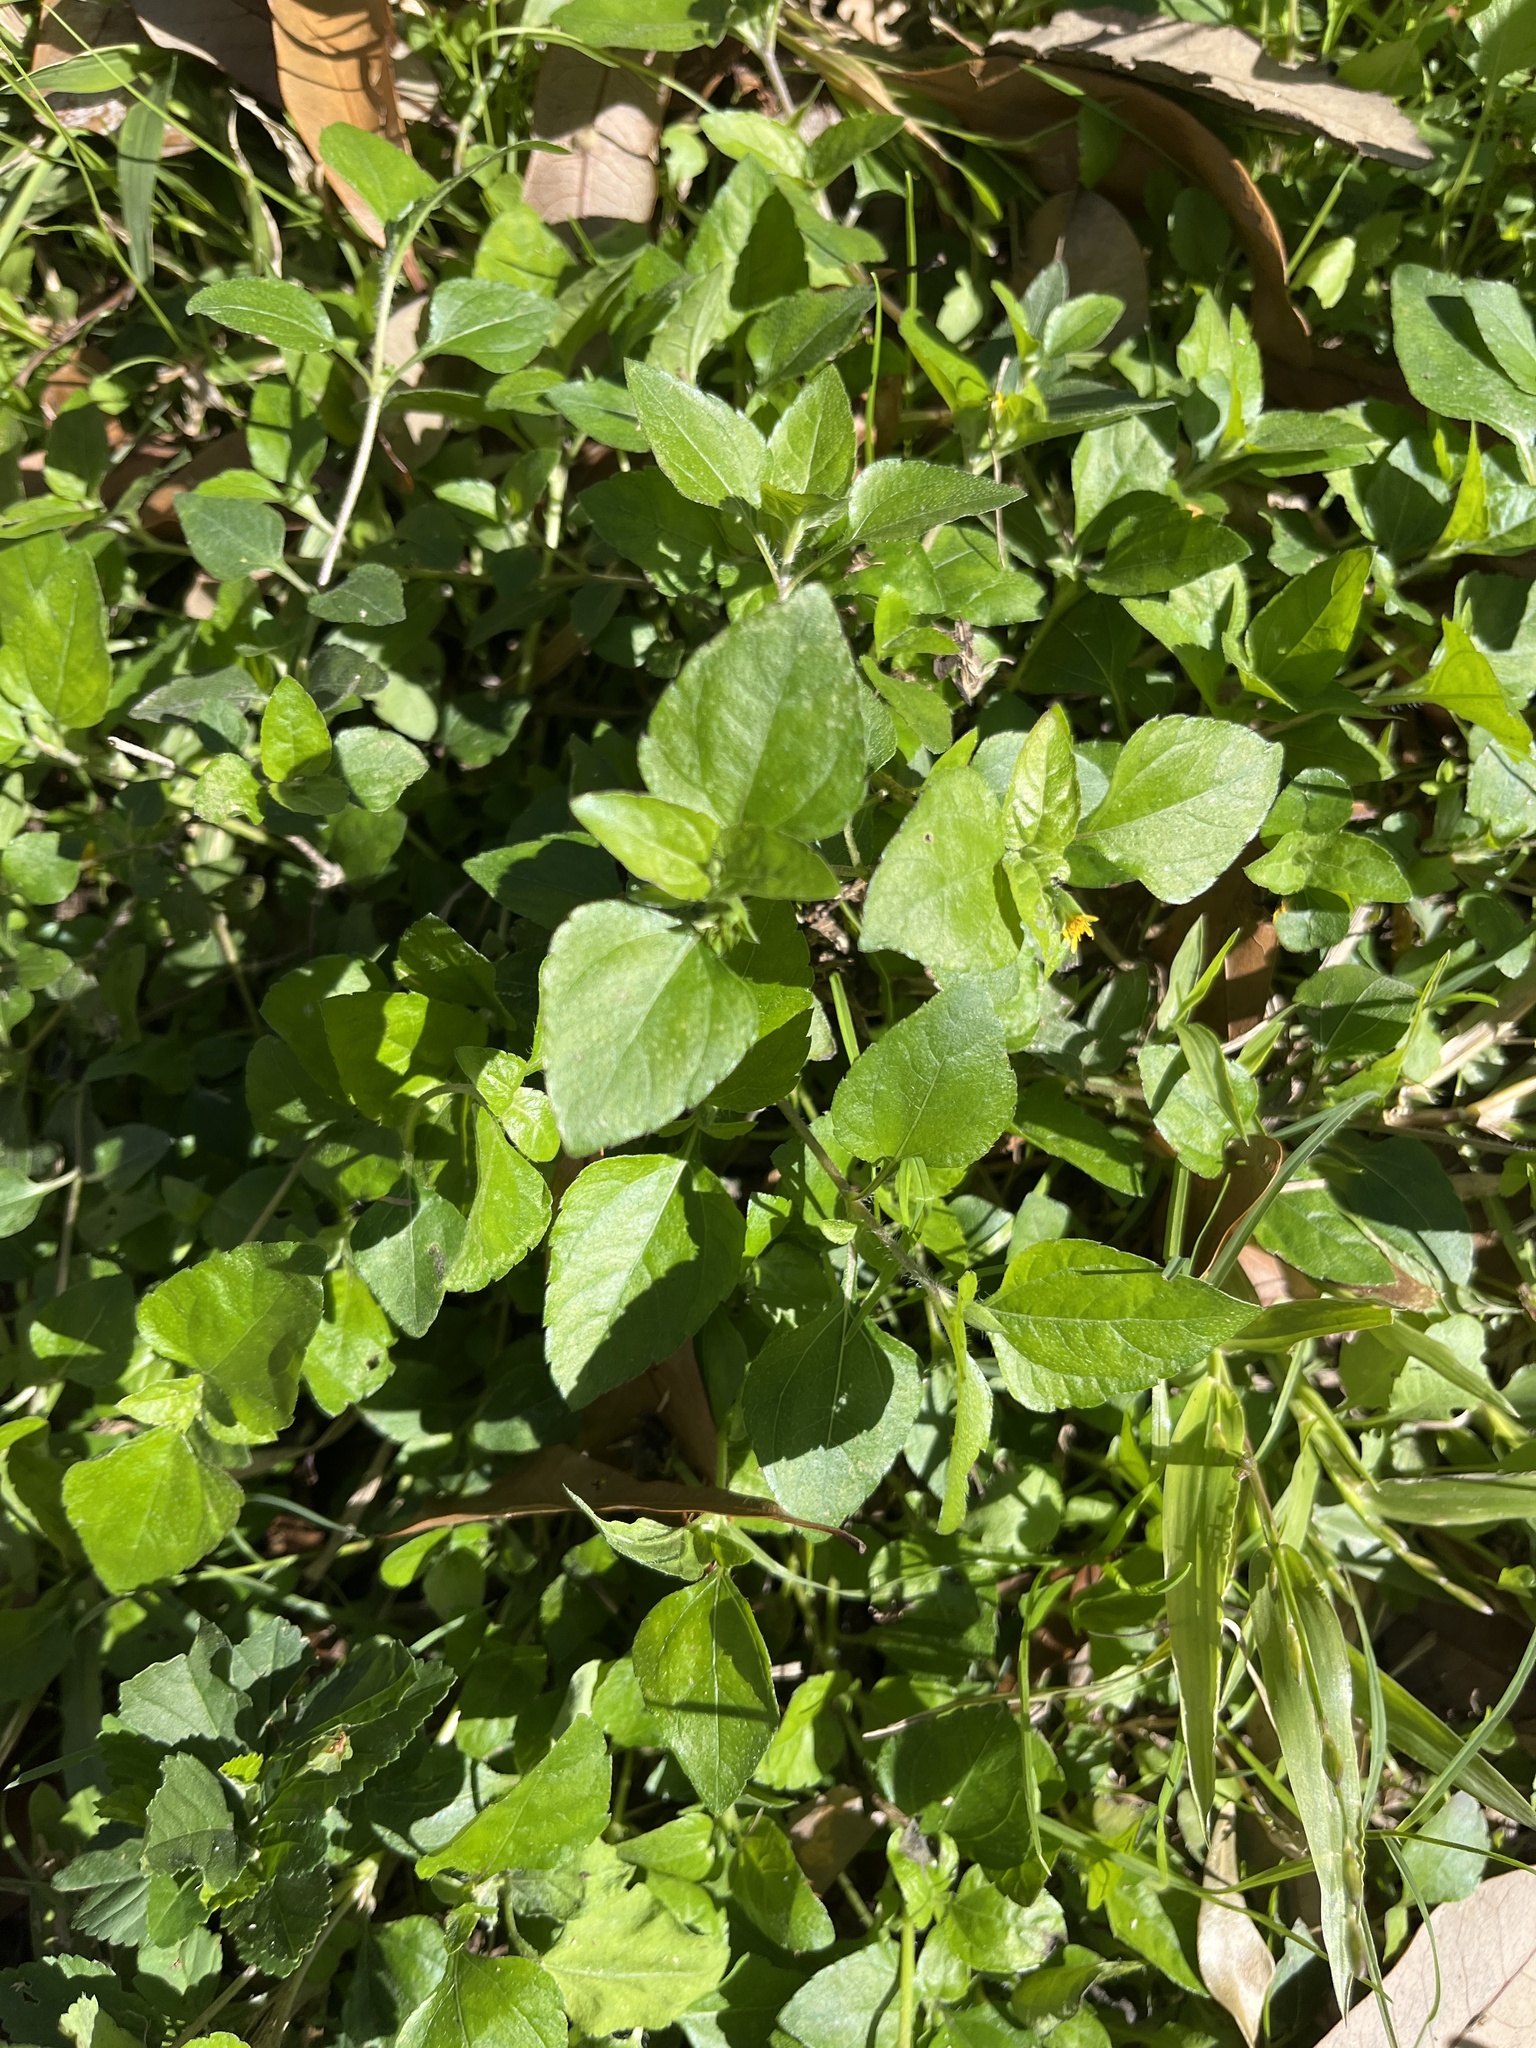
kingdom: Plantae
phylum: Tracheophyta
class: Magnoliopsida
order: Asterales
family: Asteraceae
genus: Calyptocarpus
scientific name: Calyptocarpus vialis
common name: Straggler daisy
